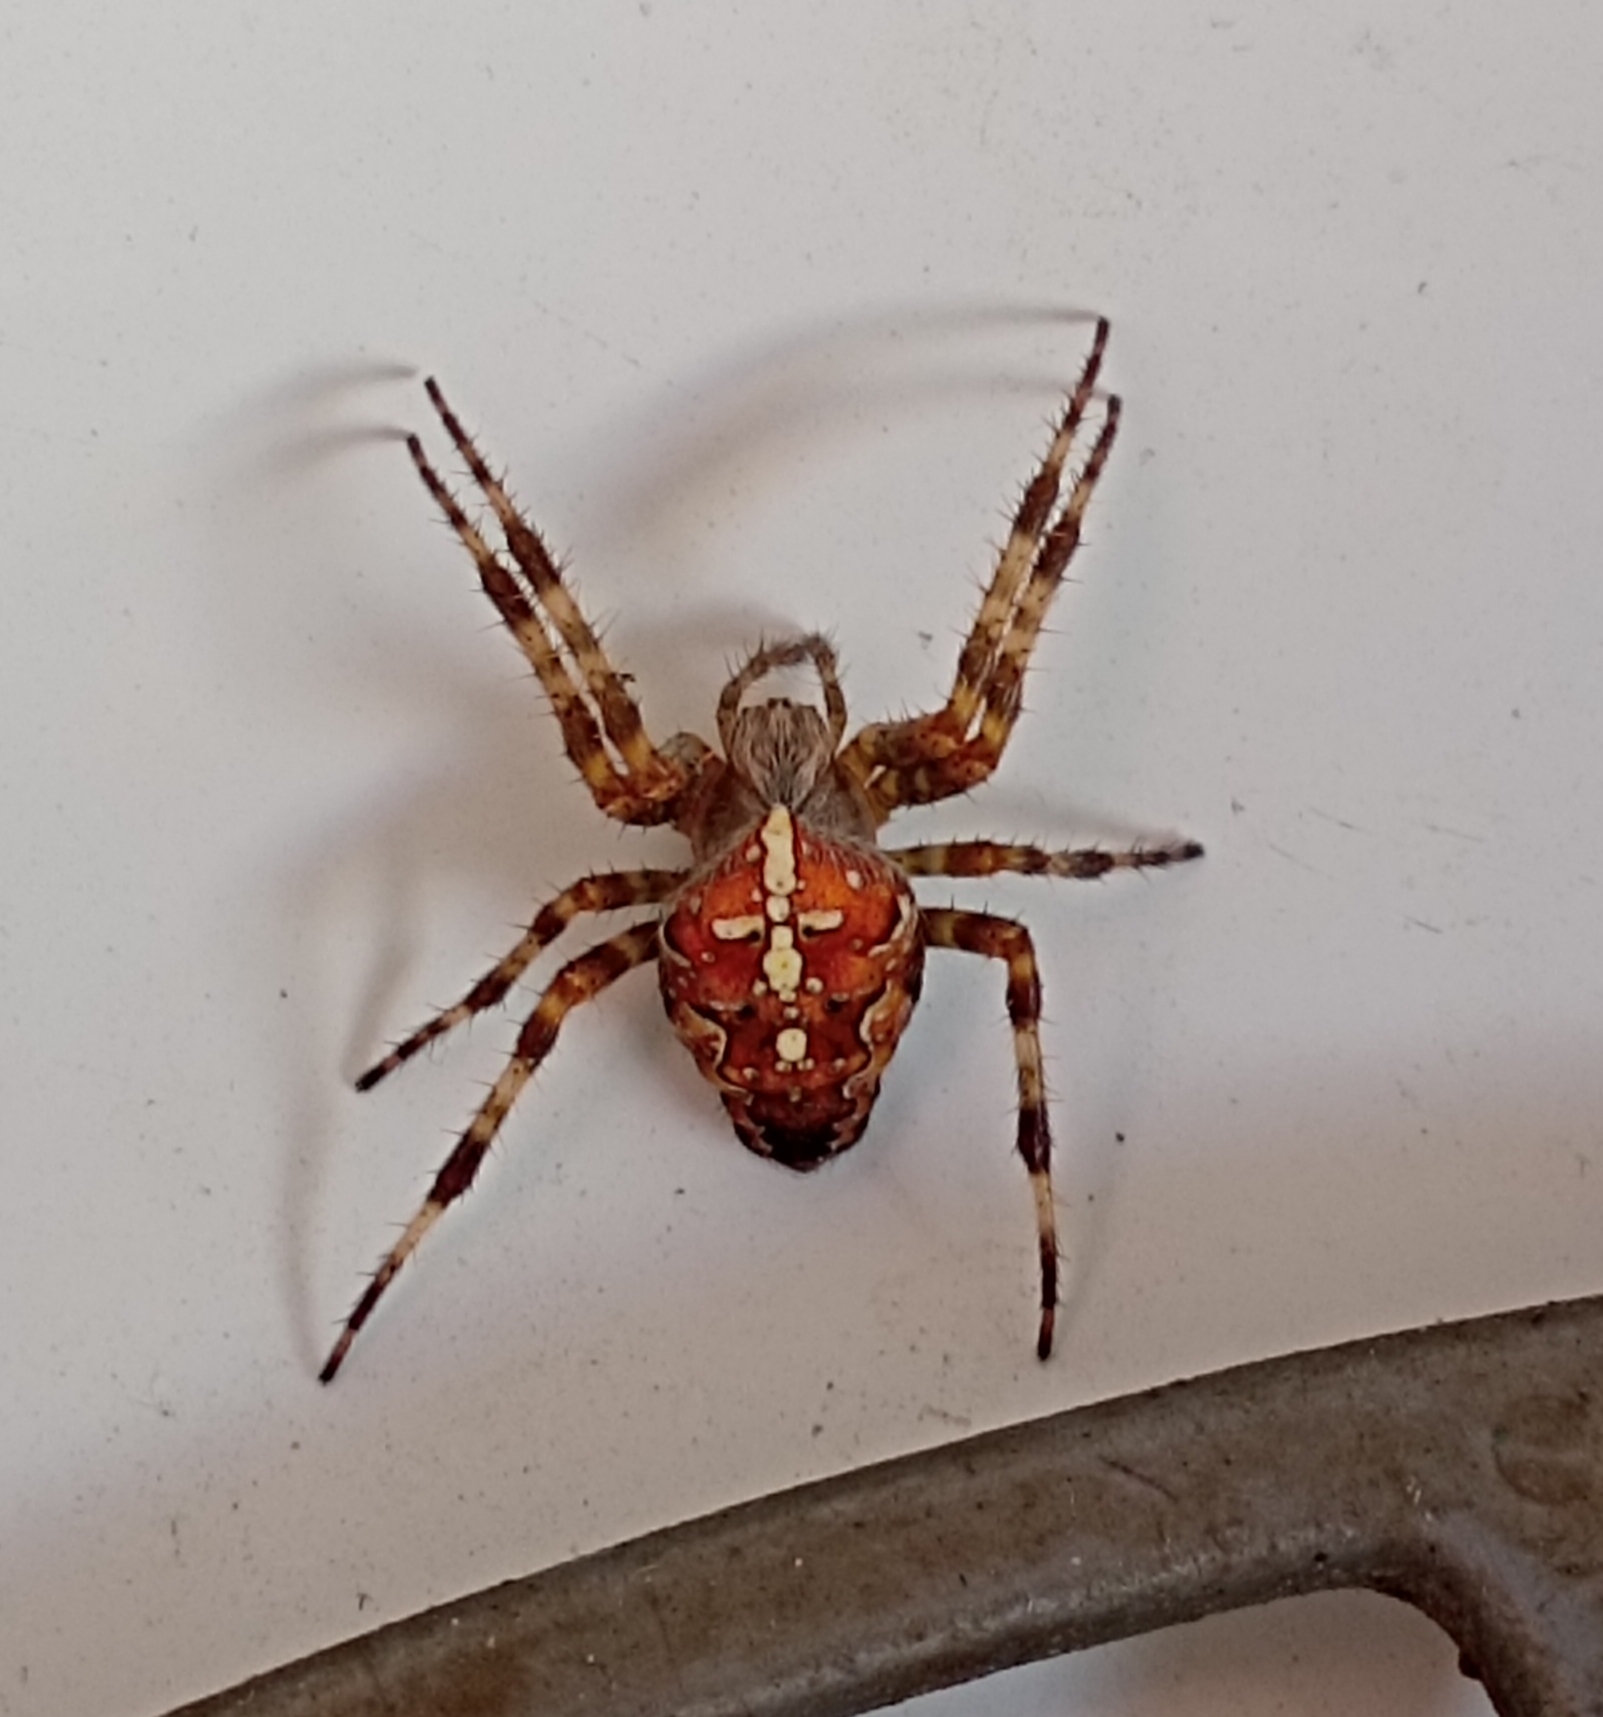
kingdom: Animalia
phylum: Arthropoda
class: Arachnida
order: Araneae
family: Araneidae
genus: Araneus
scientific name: Araneus diadematus
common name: Cross orbweaver
